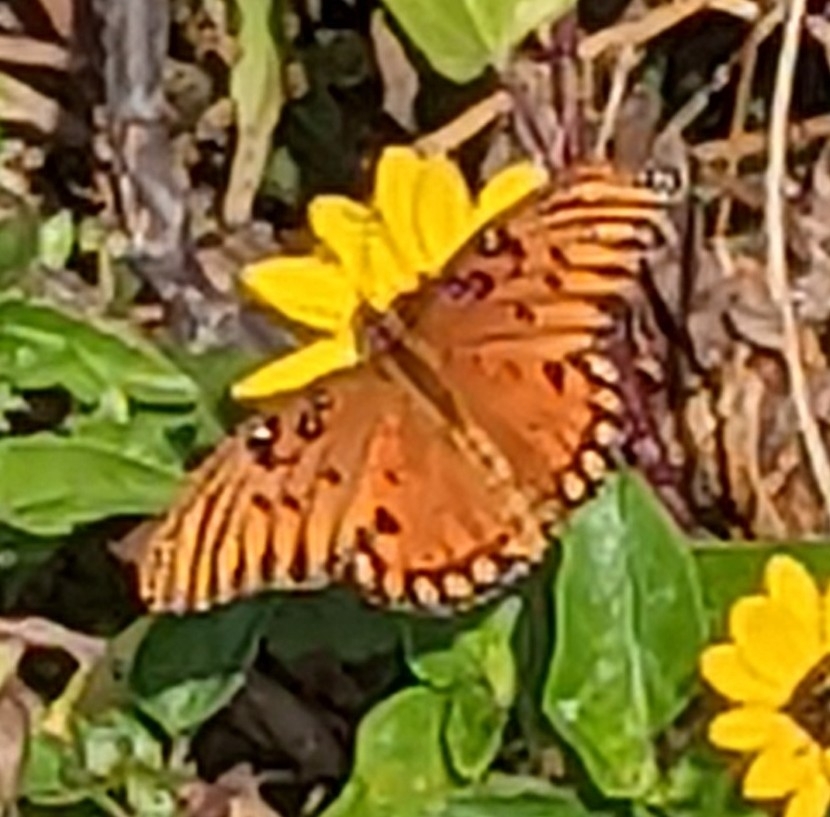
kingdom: Animalia
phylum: Arthropoda
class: Insecta
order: Lepidoptera
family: Nymphalidae
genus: Dione
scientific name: Dione vanillae
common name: Gulf fritillary
